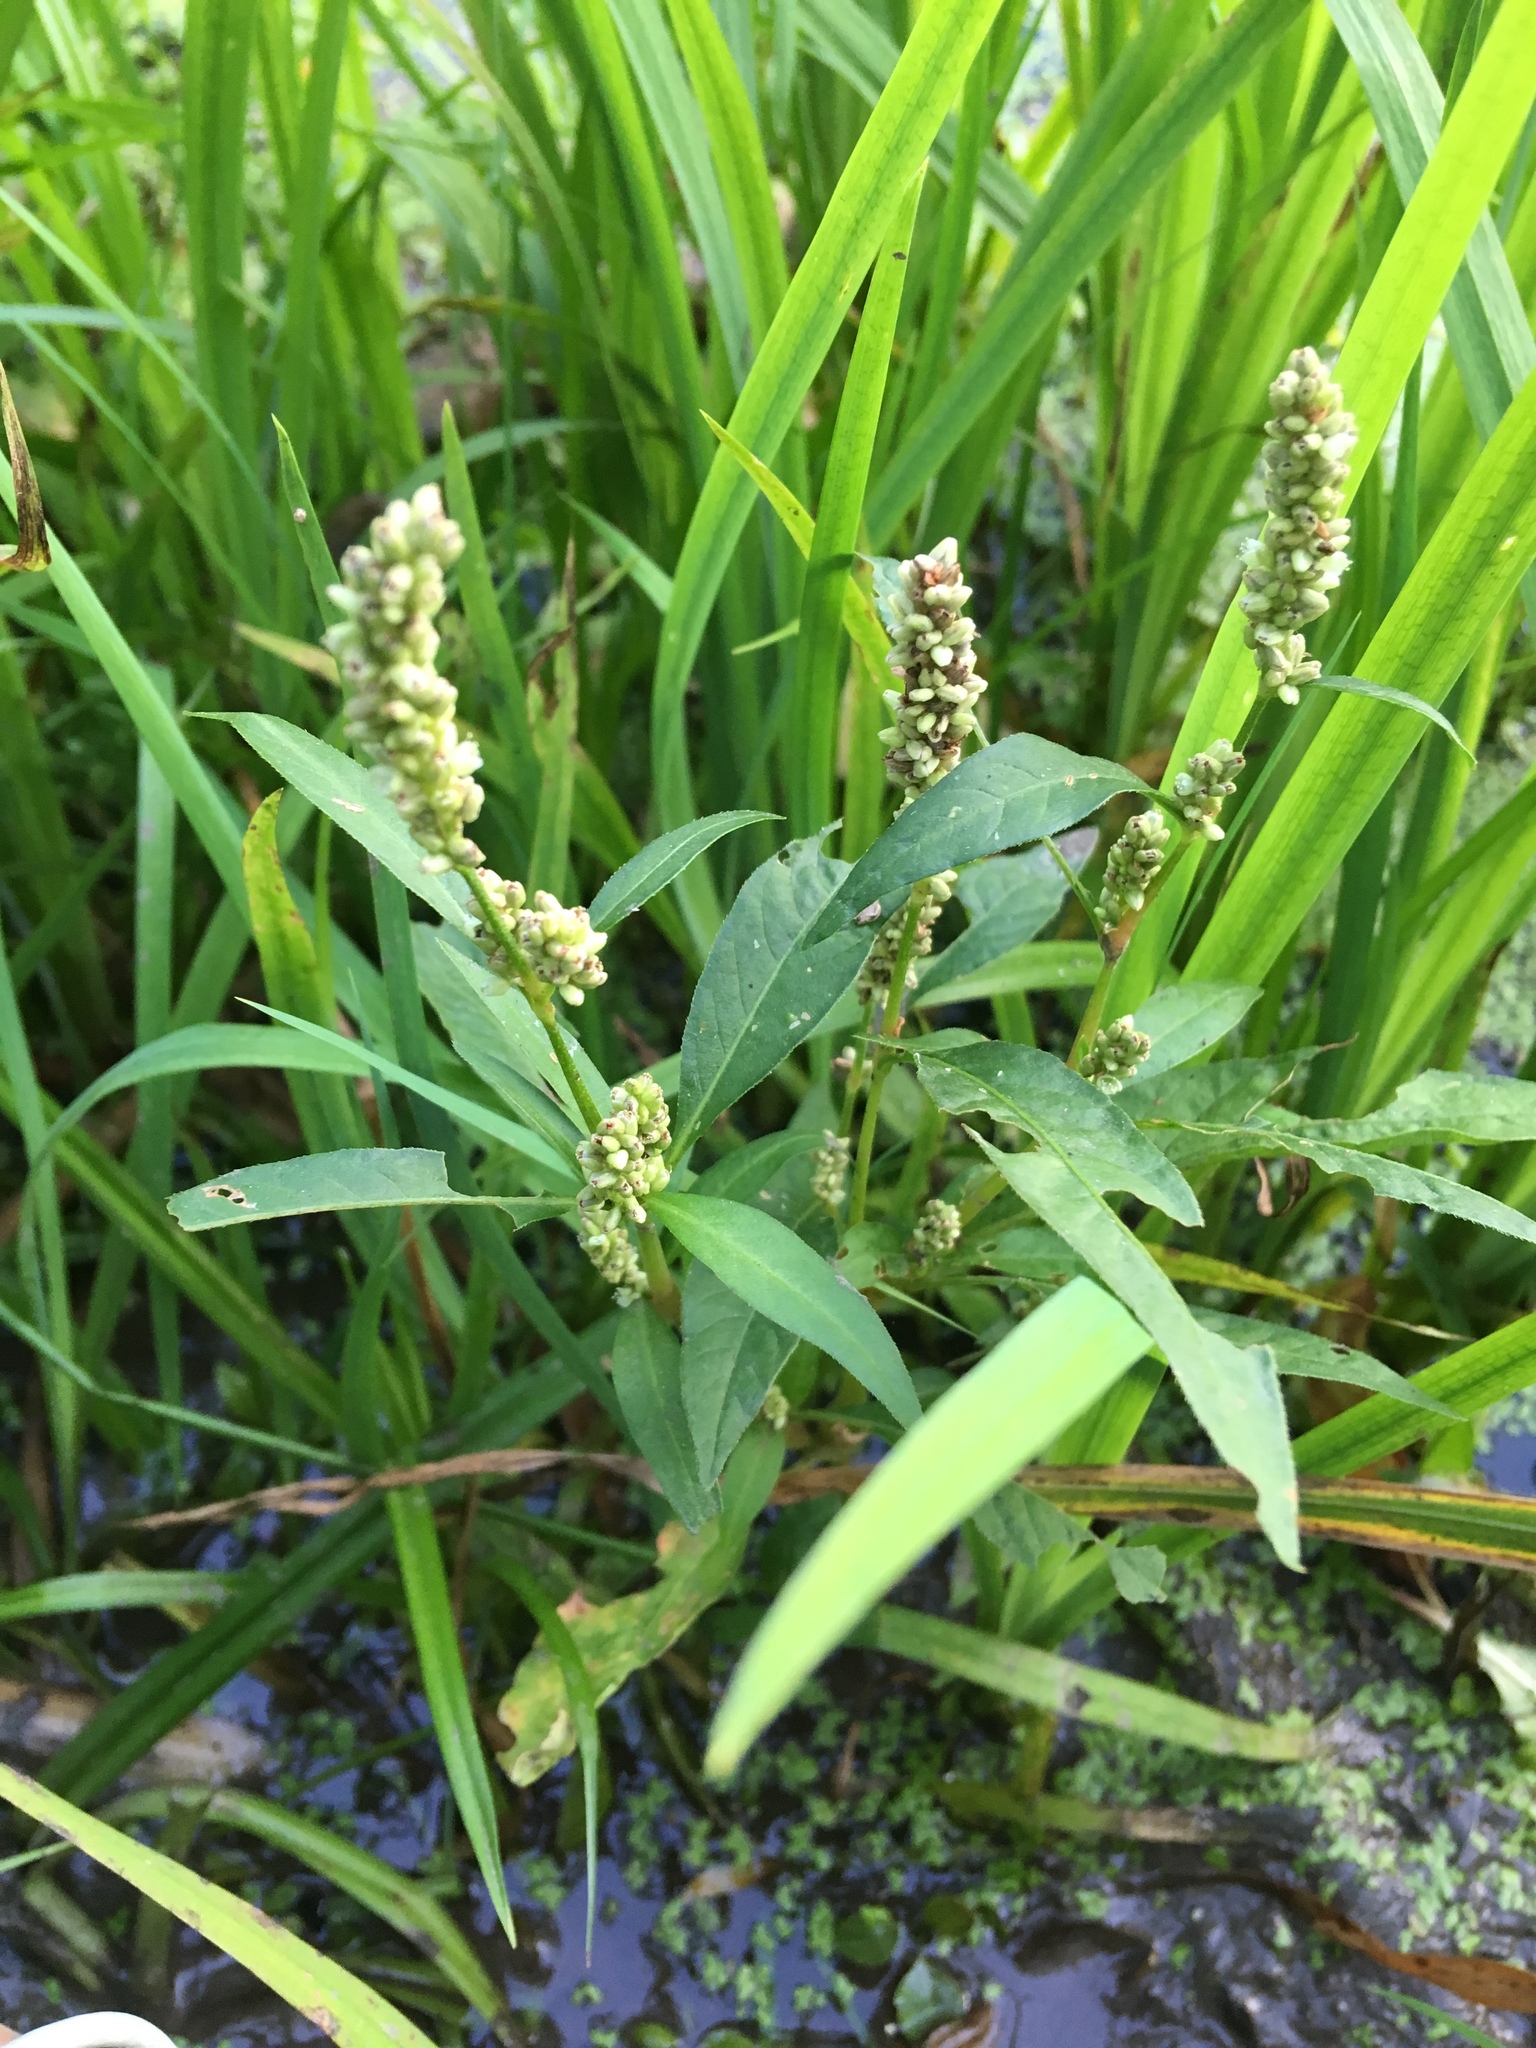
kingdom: Plantae
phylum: Tracheophyta
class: Magnoliopsida
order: Caryophyllales
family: Polygonaceae
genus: Persicaria
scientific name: Persicaria lapathifolia
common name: Curlytop knotweed
